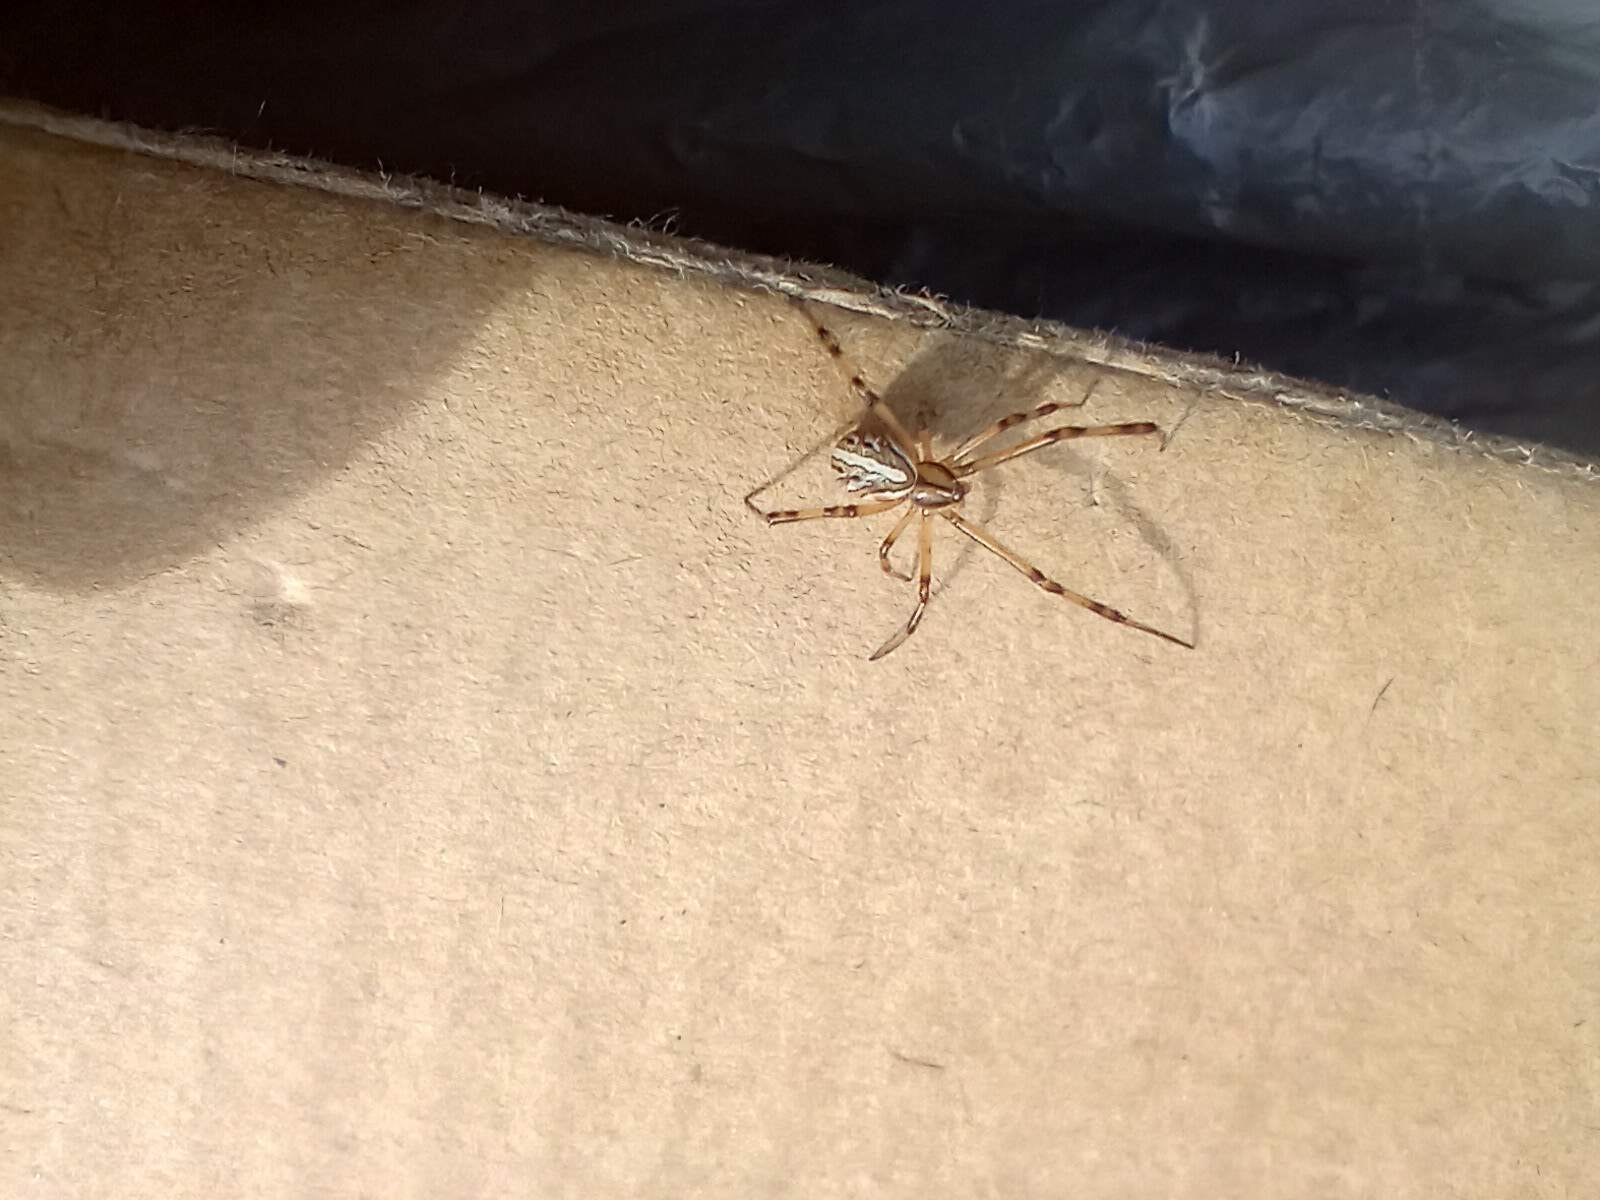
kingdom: Animalia
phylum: Arthropoda
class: Arachnida
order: Araneae
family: Theridiidae
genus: Latrodectus
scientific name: Latrodectus hesperus
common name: Western black widow
